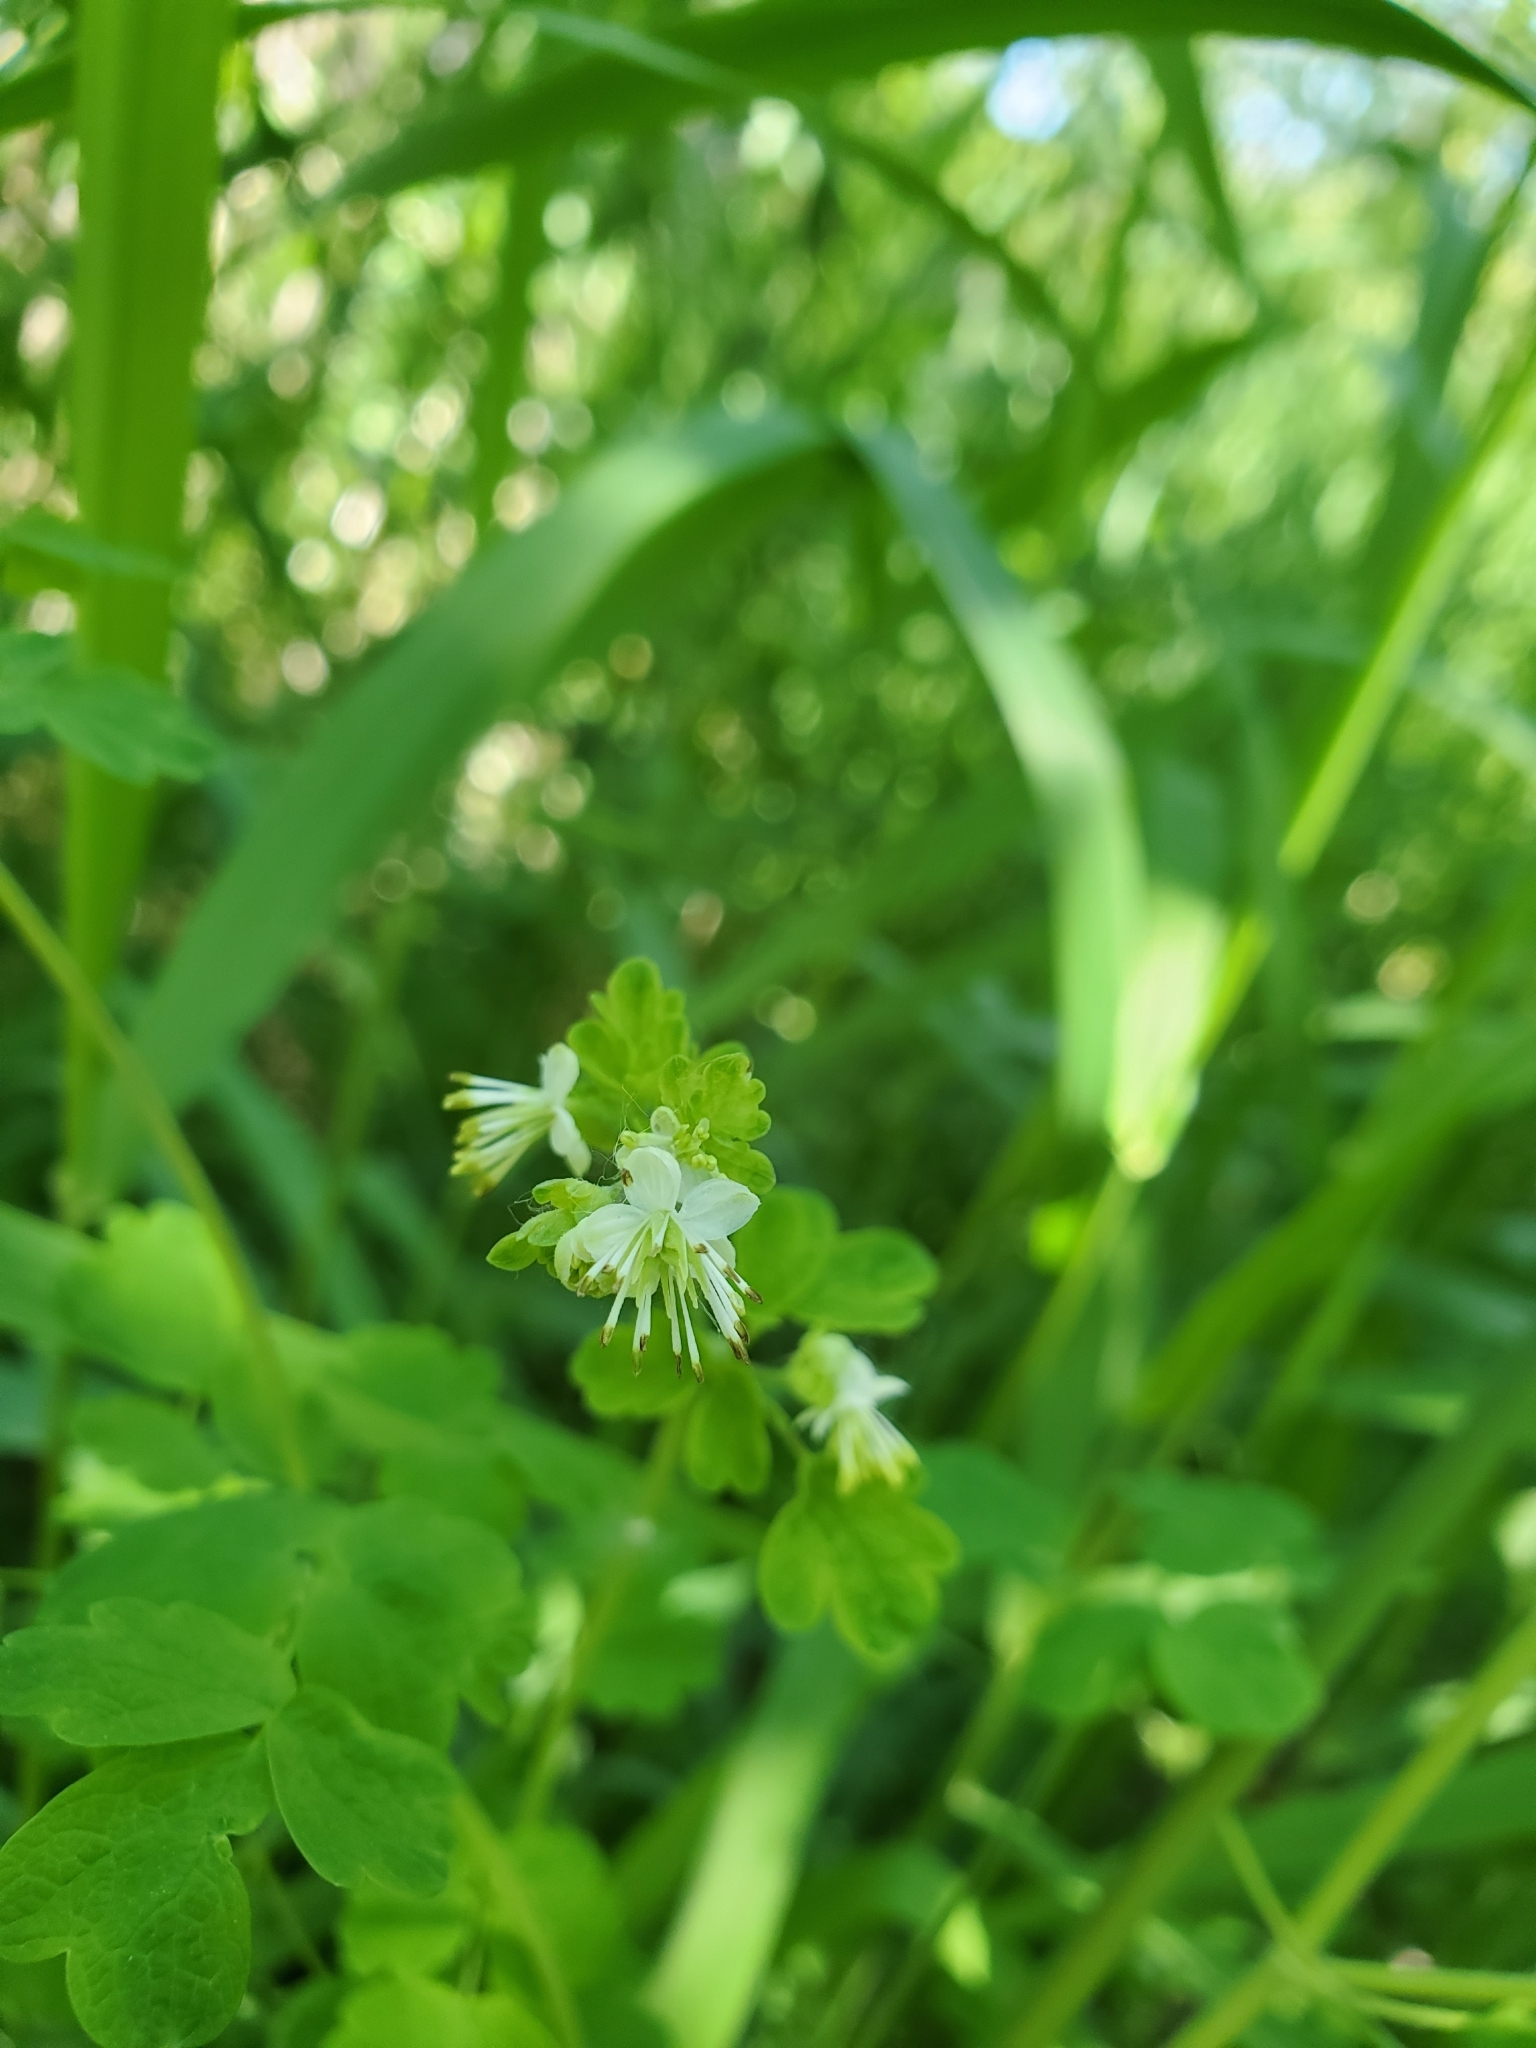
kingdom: Plantae
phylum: Tracheophyta
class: Magnoliopsida
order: Ranunculales
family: Ranunculaceae
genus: Thalictrum
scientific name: Thalictrum sparsiflorum
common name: Mountain meadow-rue
